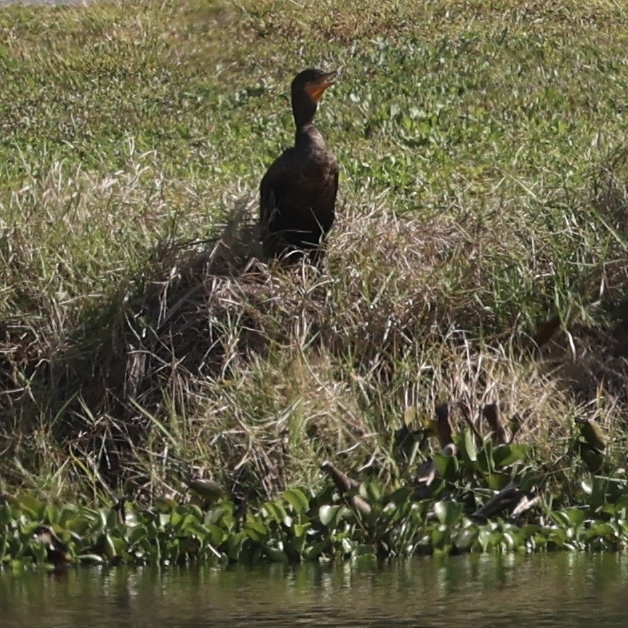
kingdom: Animalia
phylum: Chordata
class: Aves
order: Suliformes
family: Phalacrocoracidae
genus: Phalacrocorax
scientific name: Phalacrocorax auritus
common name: Double-crested cormorant
